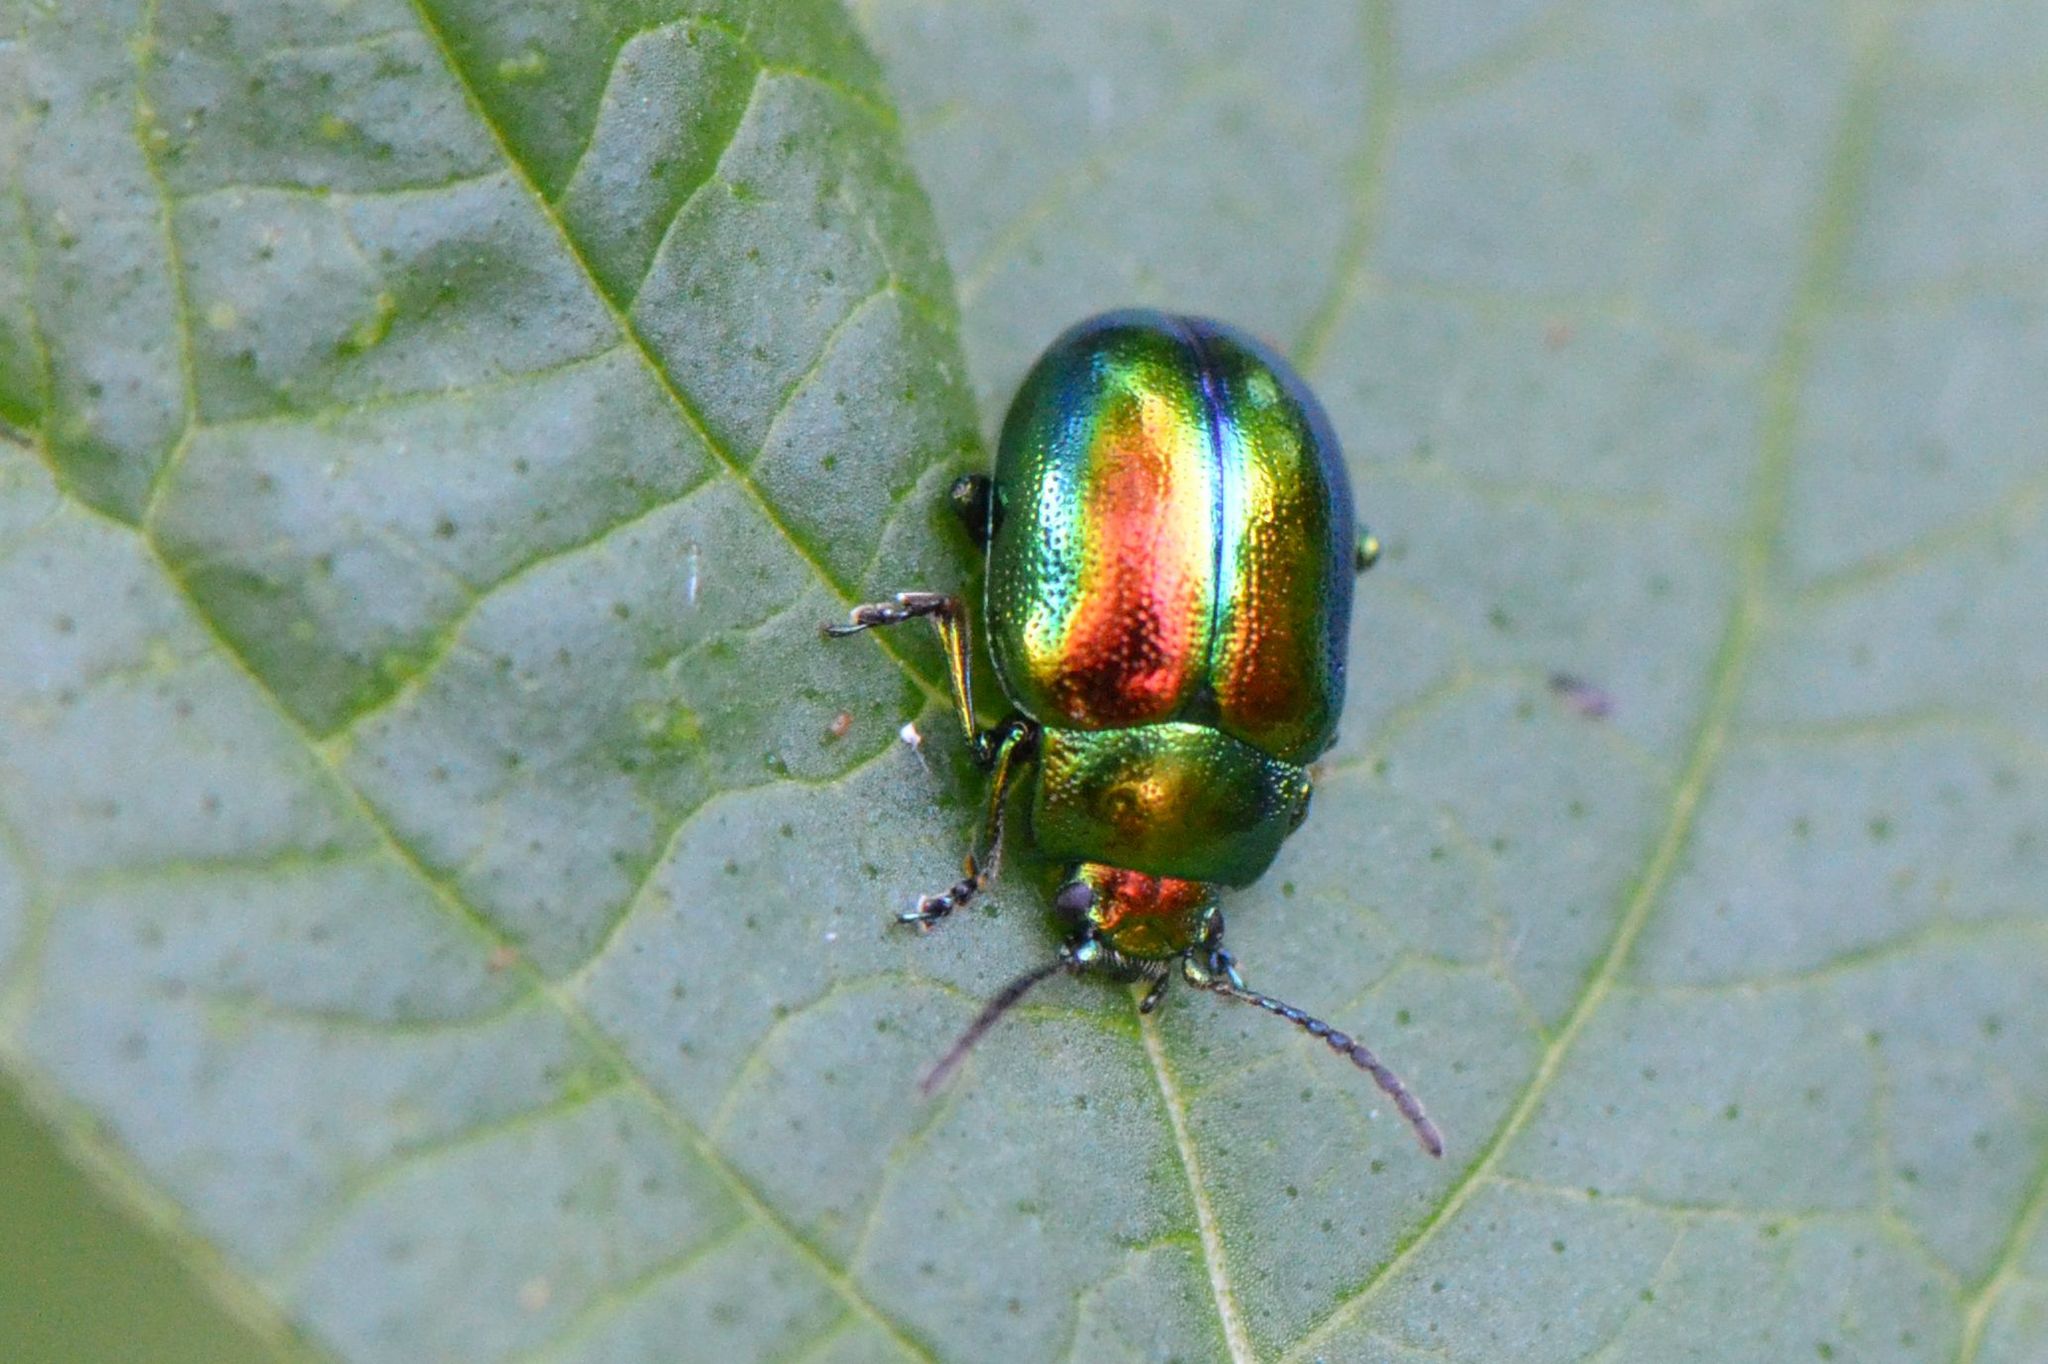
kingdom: Animalia
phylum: Arthropoda
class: Insecta
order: Coleoptera
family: Chrysomelidae
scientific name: Chrysomelidae
